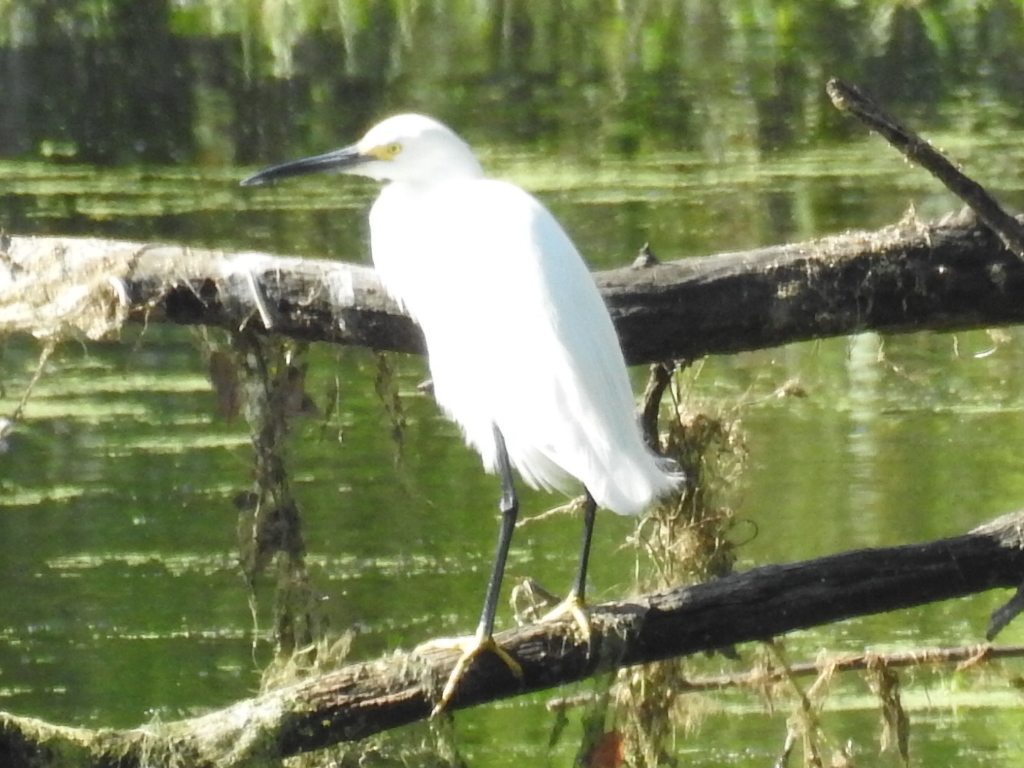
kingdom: Animalia
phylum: Chordata
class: Aves
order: Pelecaniformes
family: Ardeidae
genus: Egretta
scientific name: Egretta thula
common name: Snowy egret
